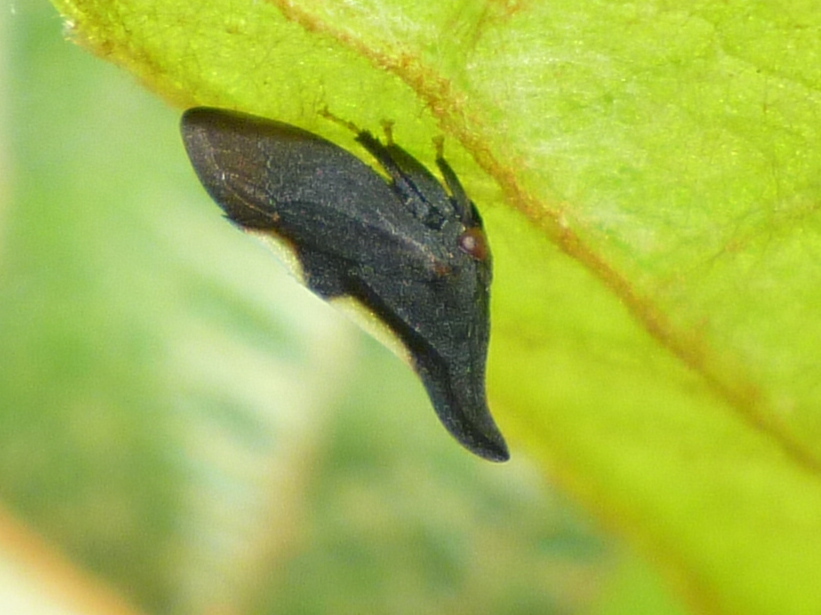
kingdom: Animalia
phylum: Arthropoda
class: Insecta
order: Hemiptera
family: Membracidae
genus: Enchenopa
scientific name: Enchenopa
